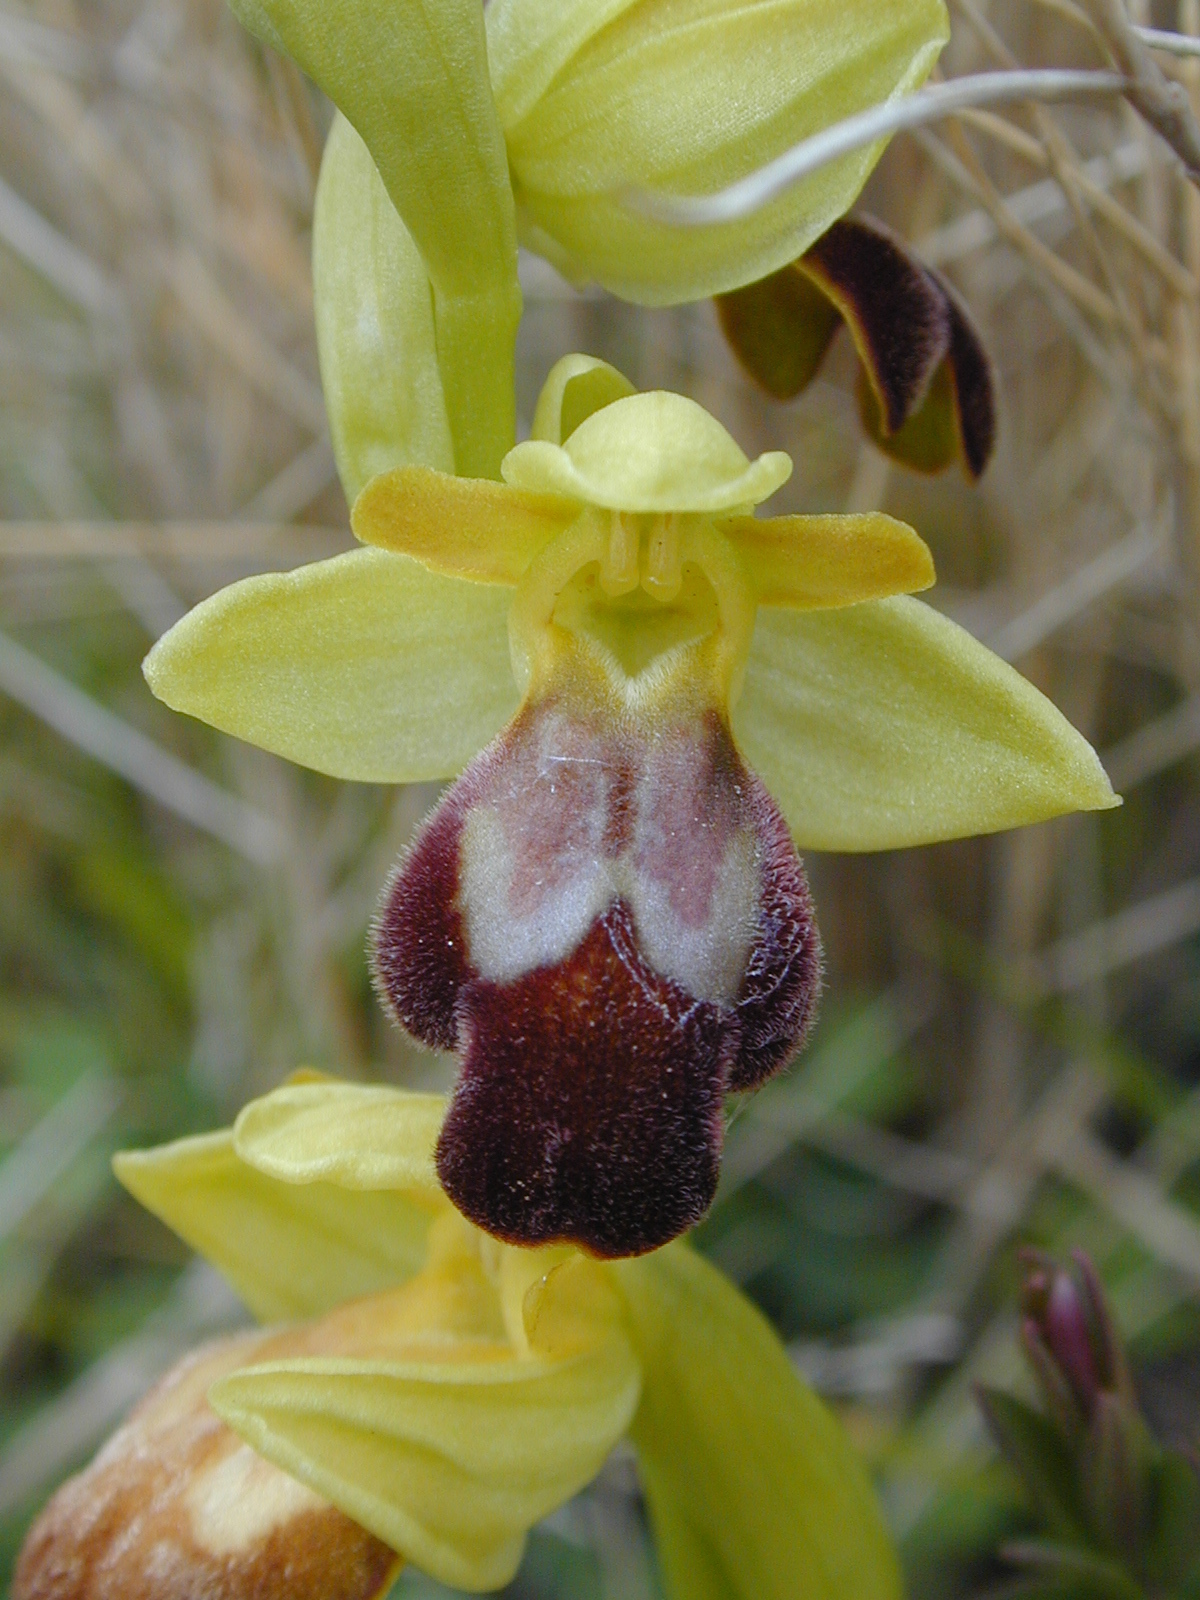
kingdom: Plantae
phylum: Tracheophyta
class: Liliopsida
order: Asparagales
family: Orchidaceae
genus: Ophrys
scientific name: Ophrys fusca
